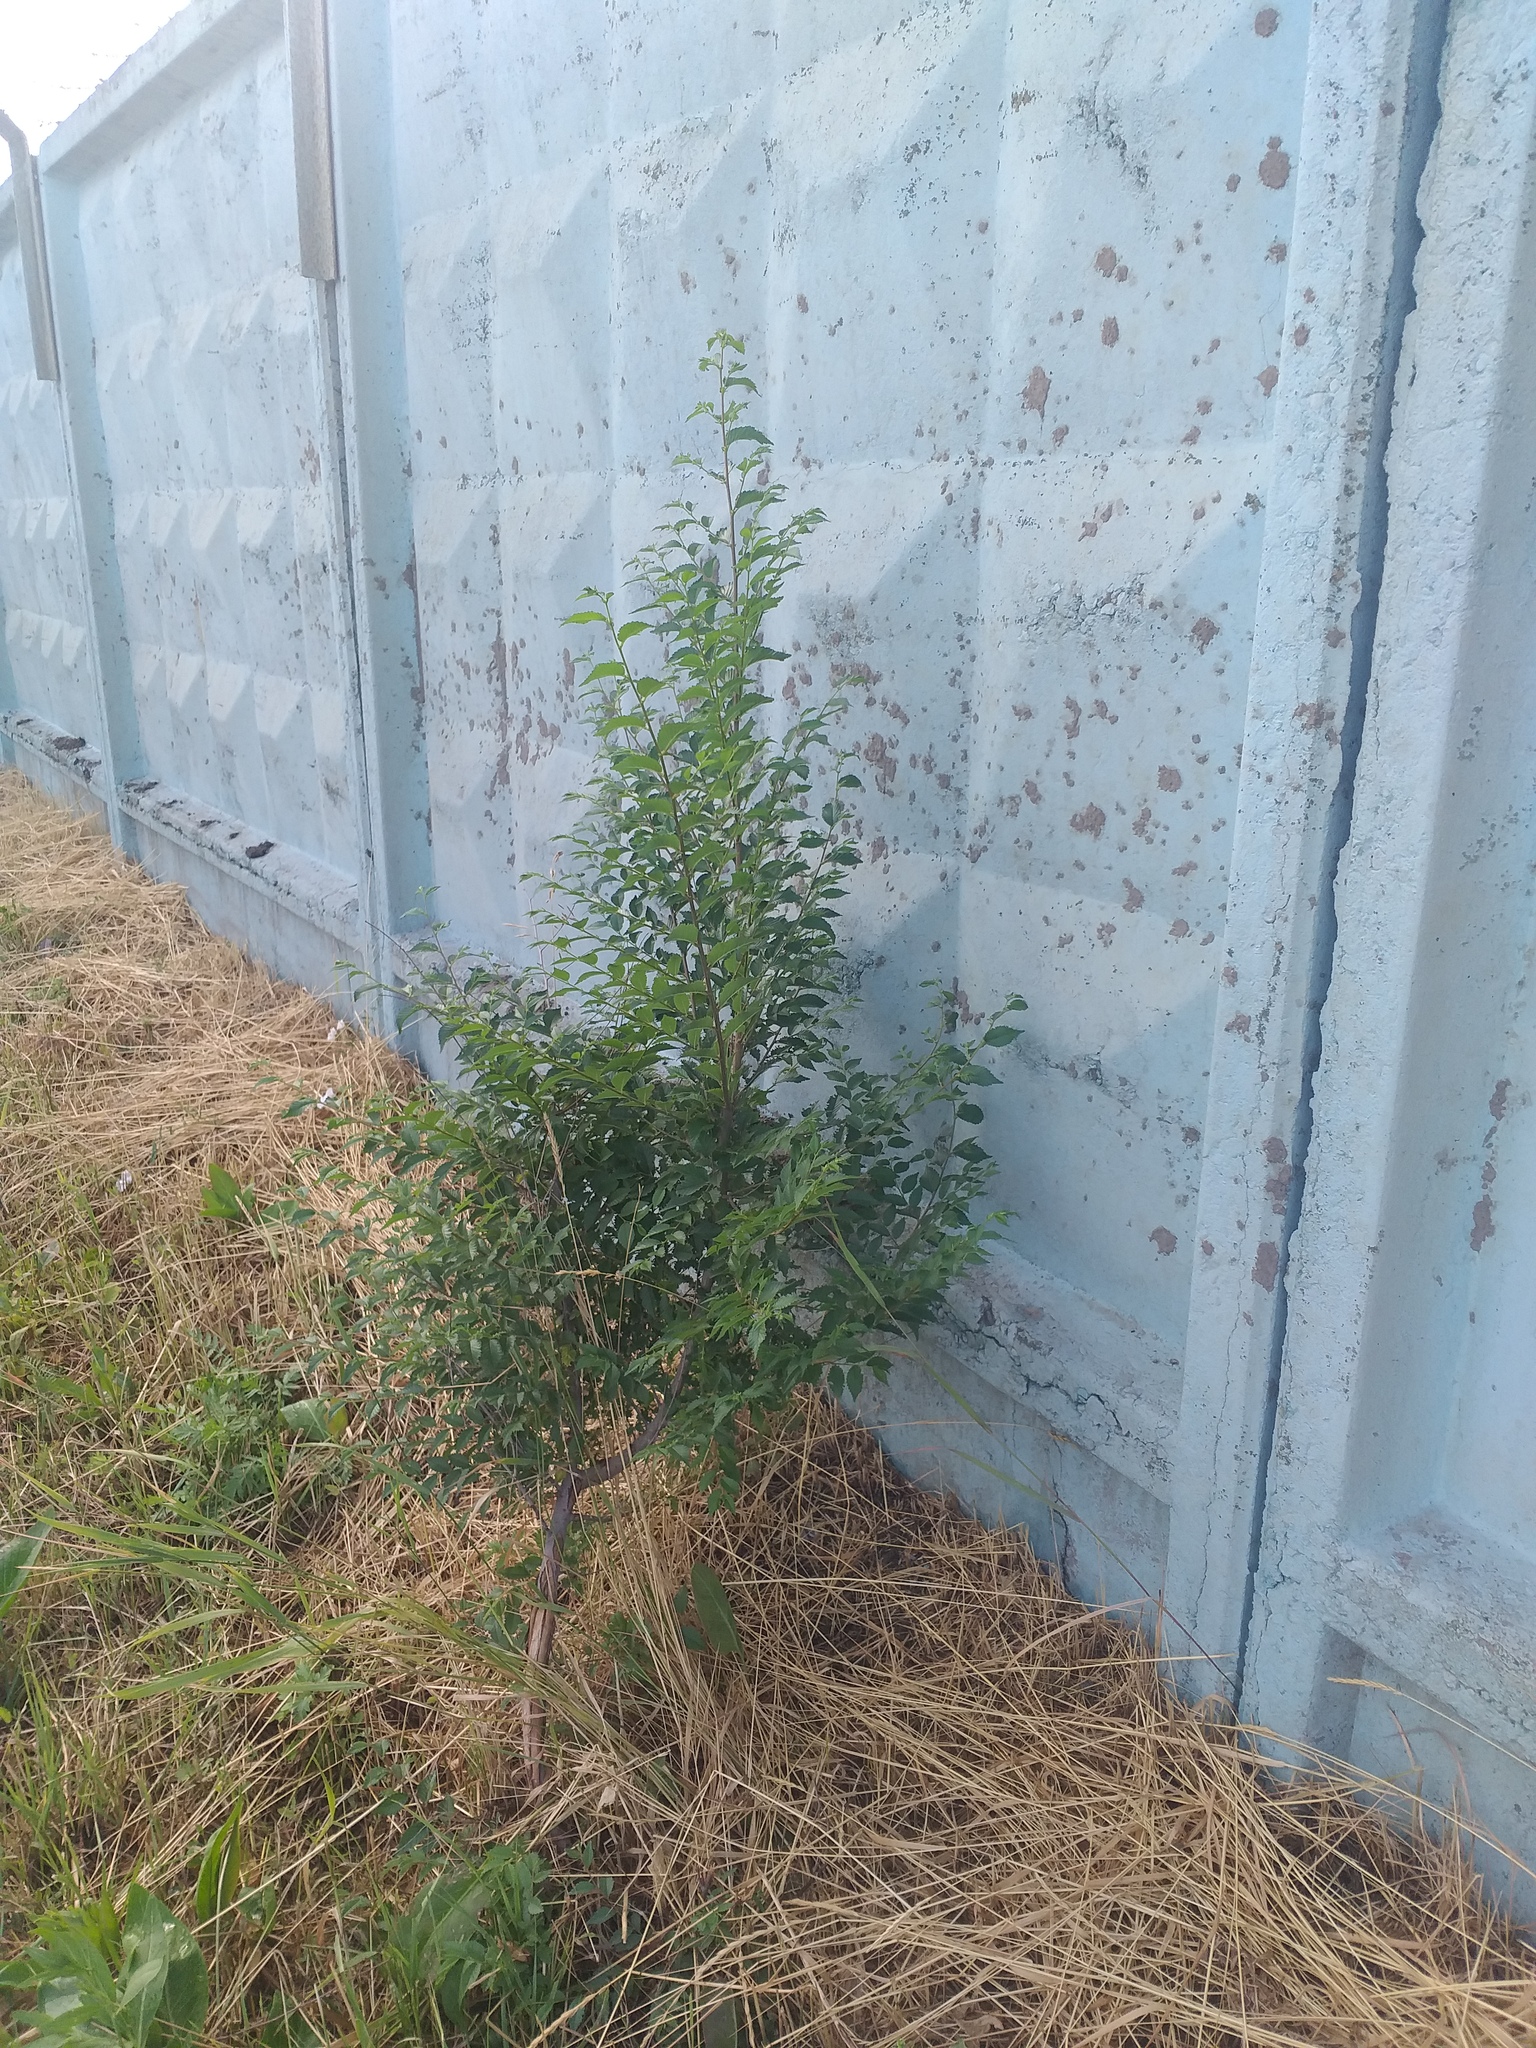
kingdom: Plantae
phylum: Tracheophyta
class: Magnoliopsida
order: Rosales
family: Ulmaceae
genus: Ulmus
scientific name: Ulmus pumila
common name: Siberian elm
